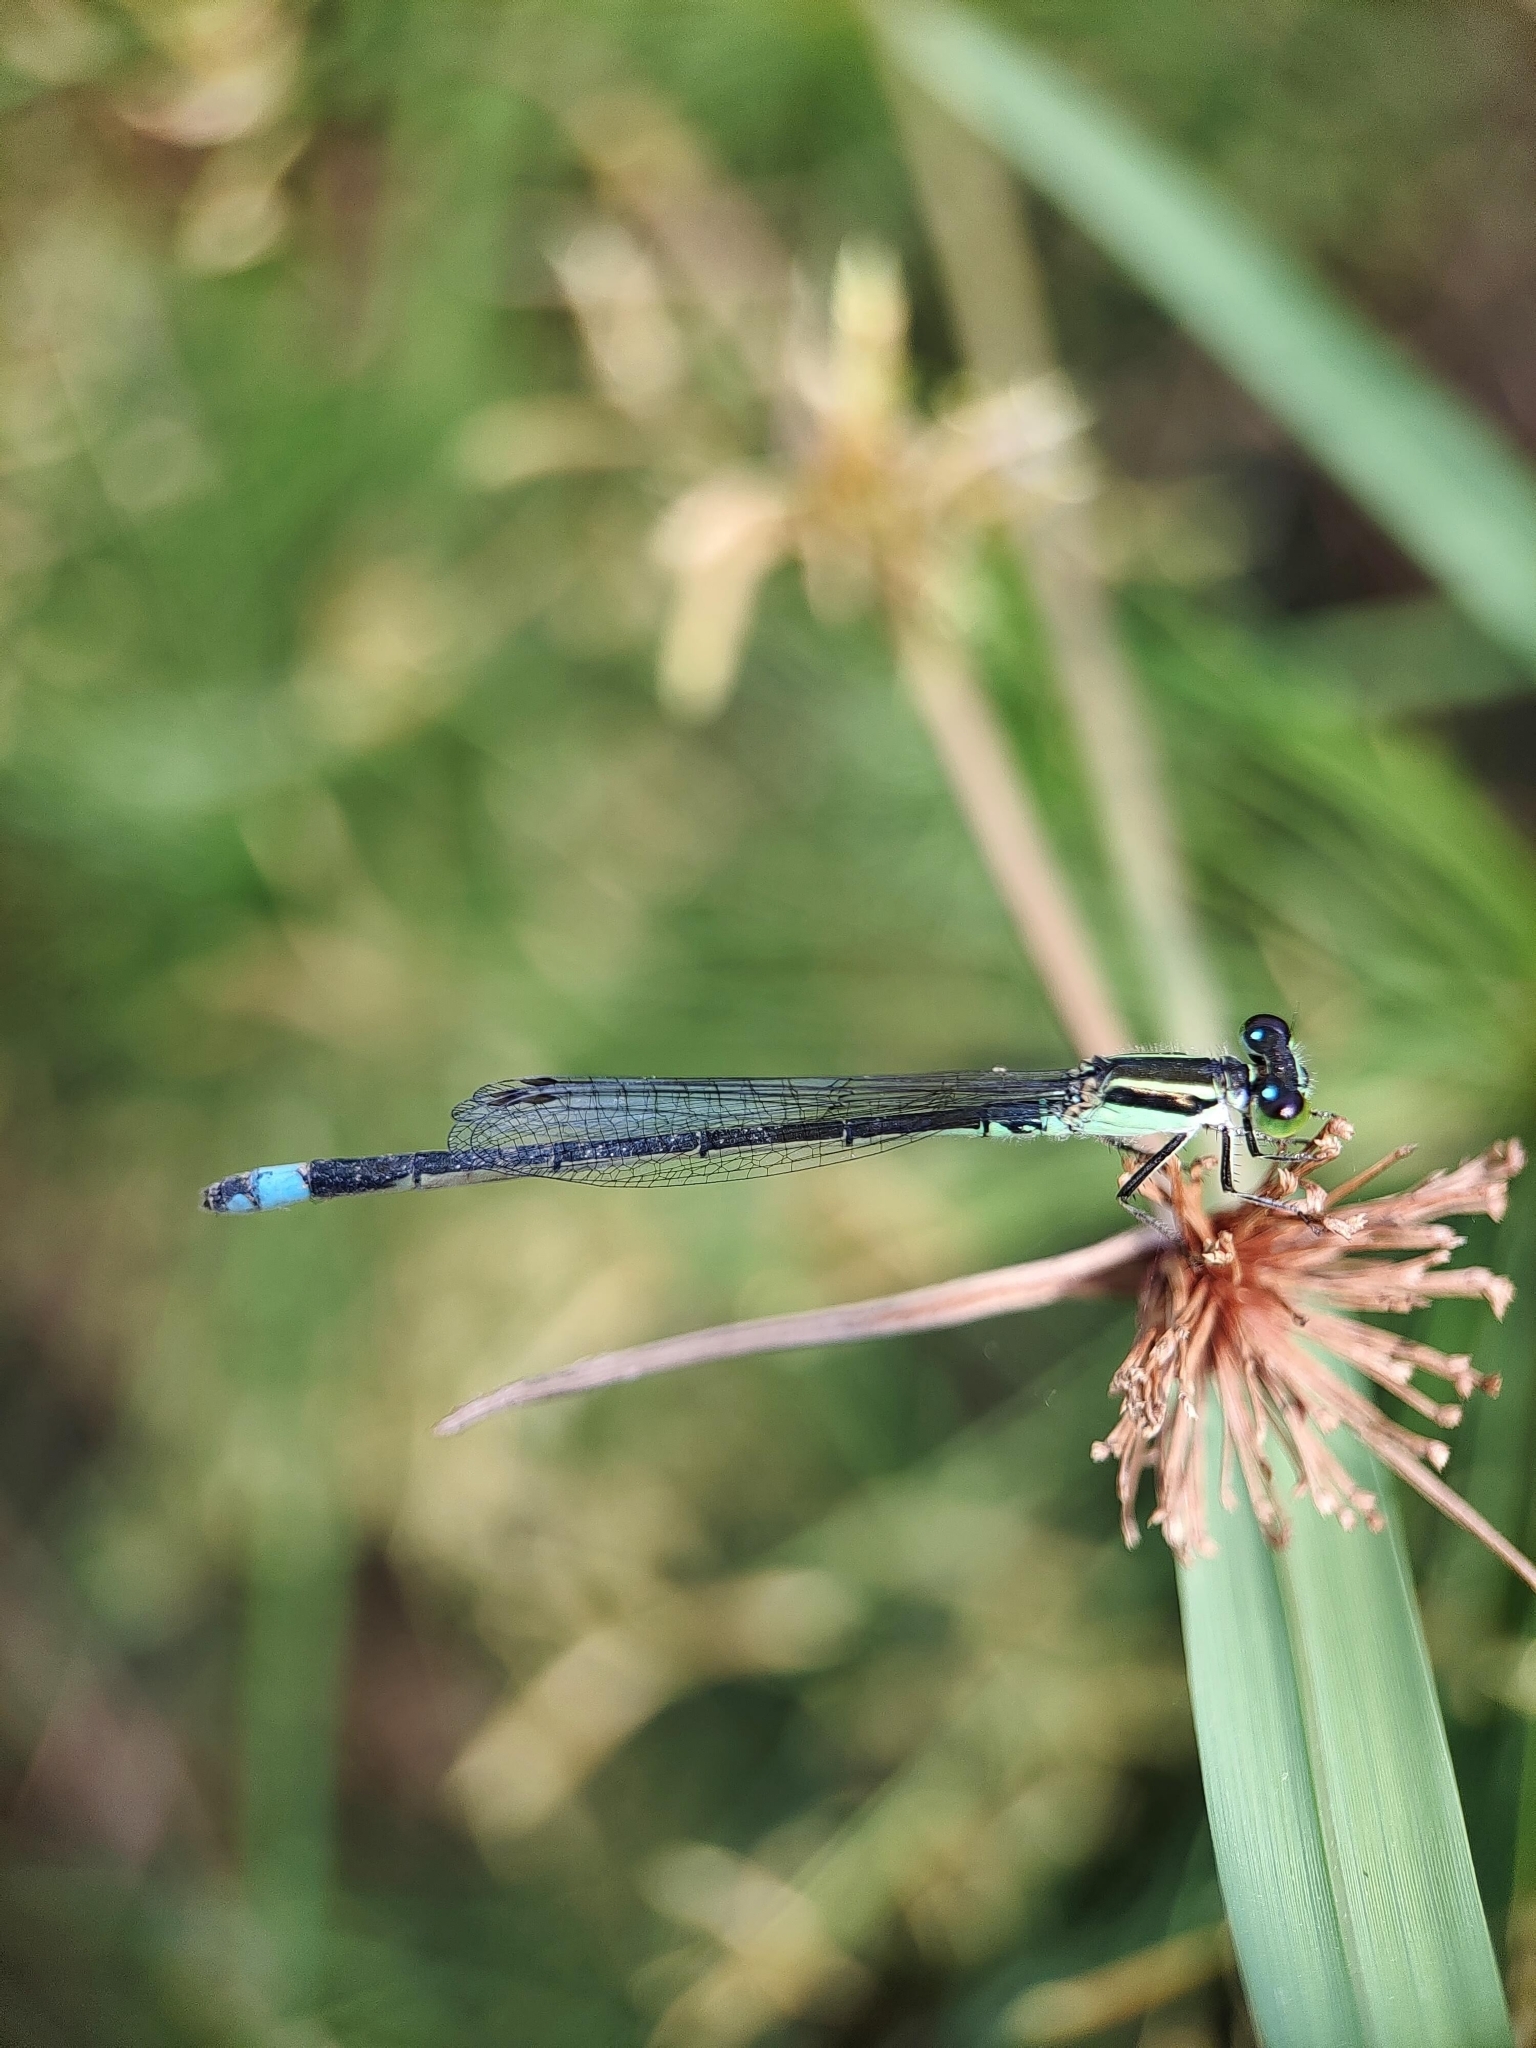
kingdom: Animalia
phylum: Arthropoda
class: Insecta
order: Odonata
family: Coenagrionidae
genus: Ischnura
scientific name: Ischnura senegalensis
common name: Tropical bluetail
